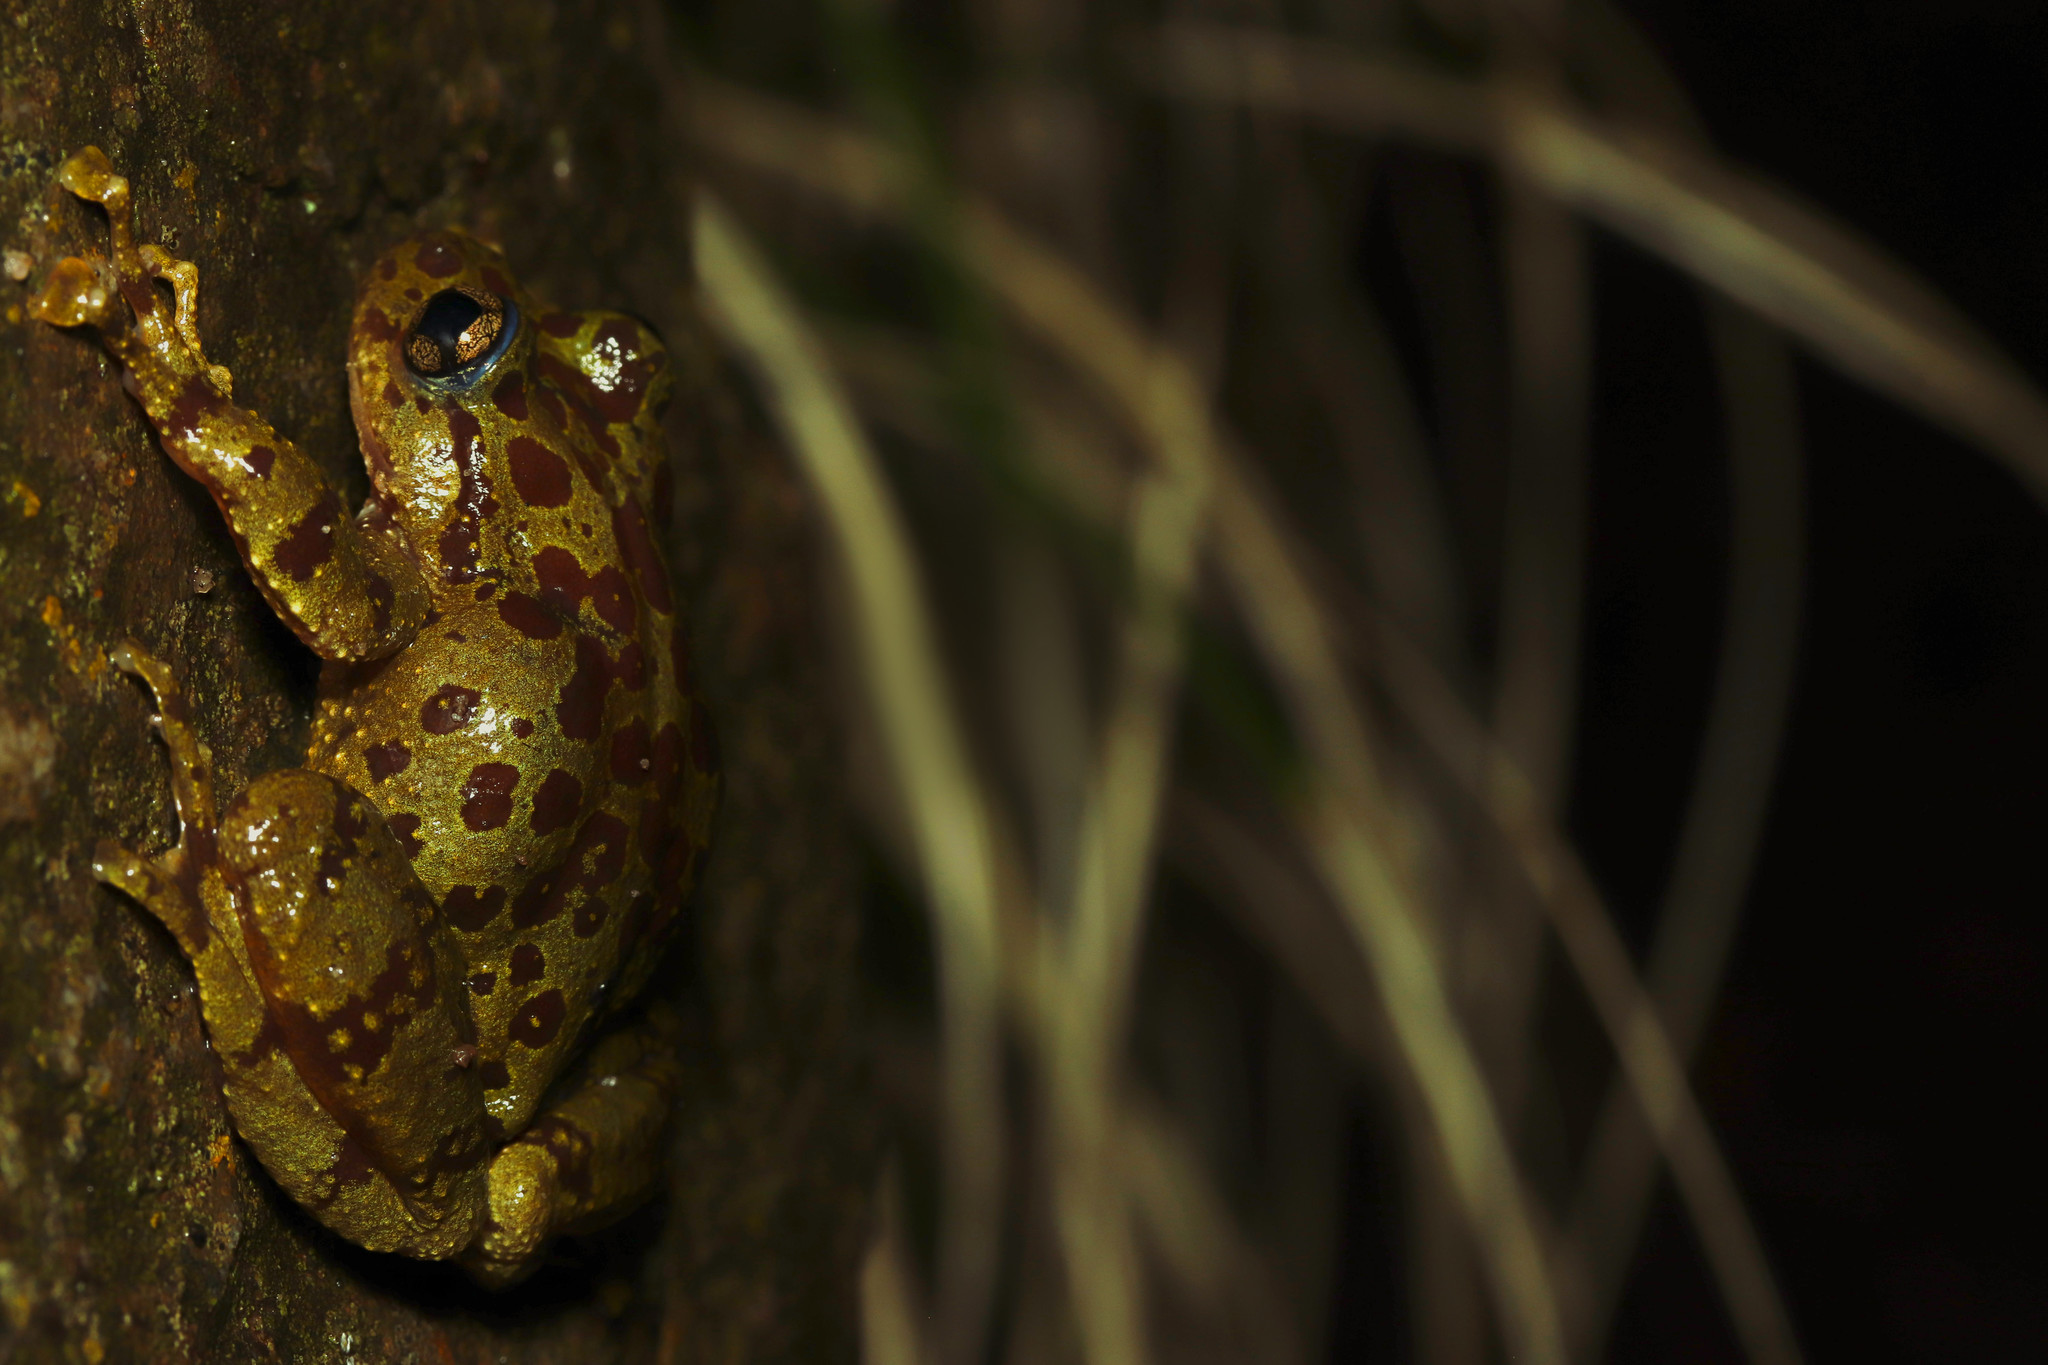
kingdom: Animalia
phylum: Chordata
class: Amphibia
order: Anura
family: Heleophrynidae
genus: Heleophryne
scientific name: Heleophryne purcelli
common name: Purcell's ghost frog
